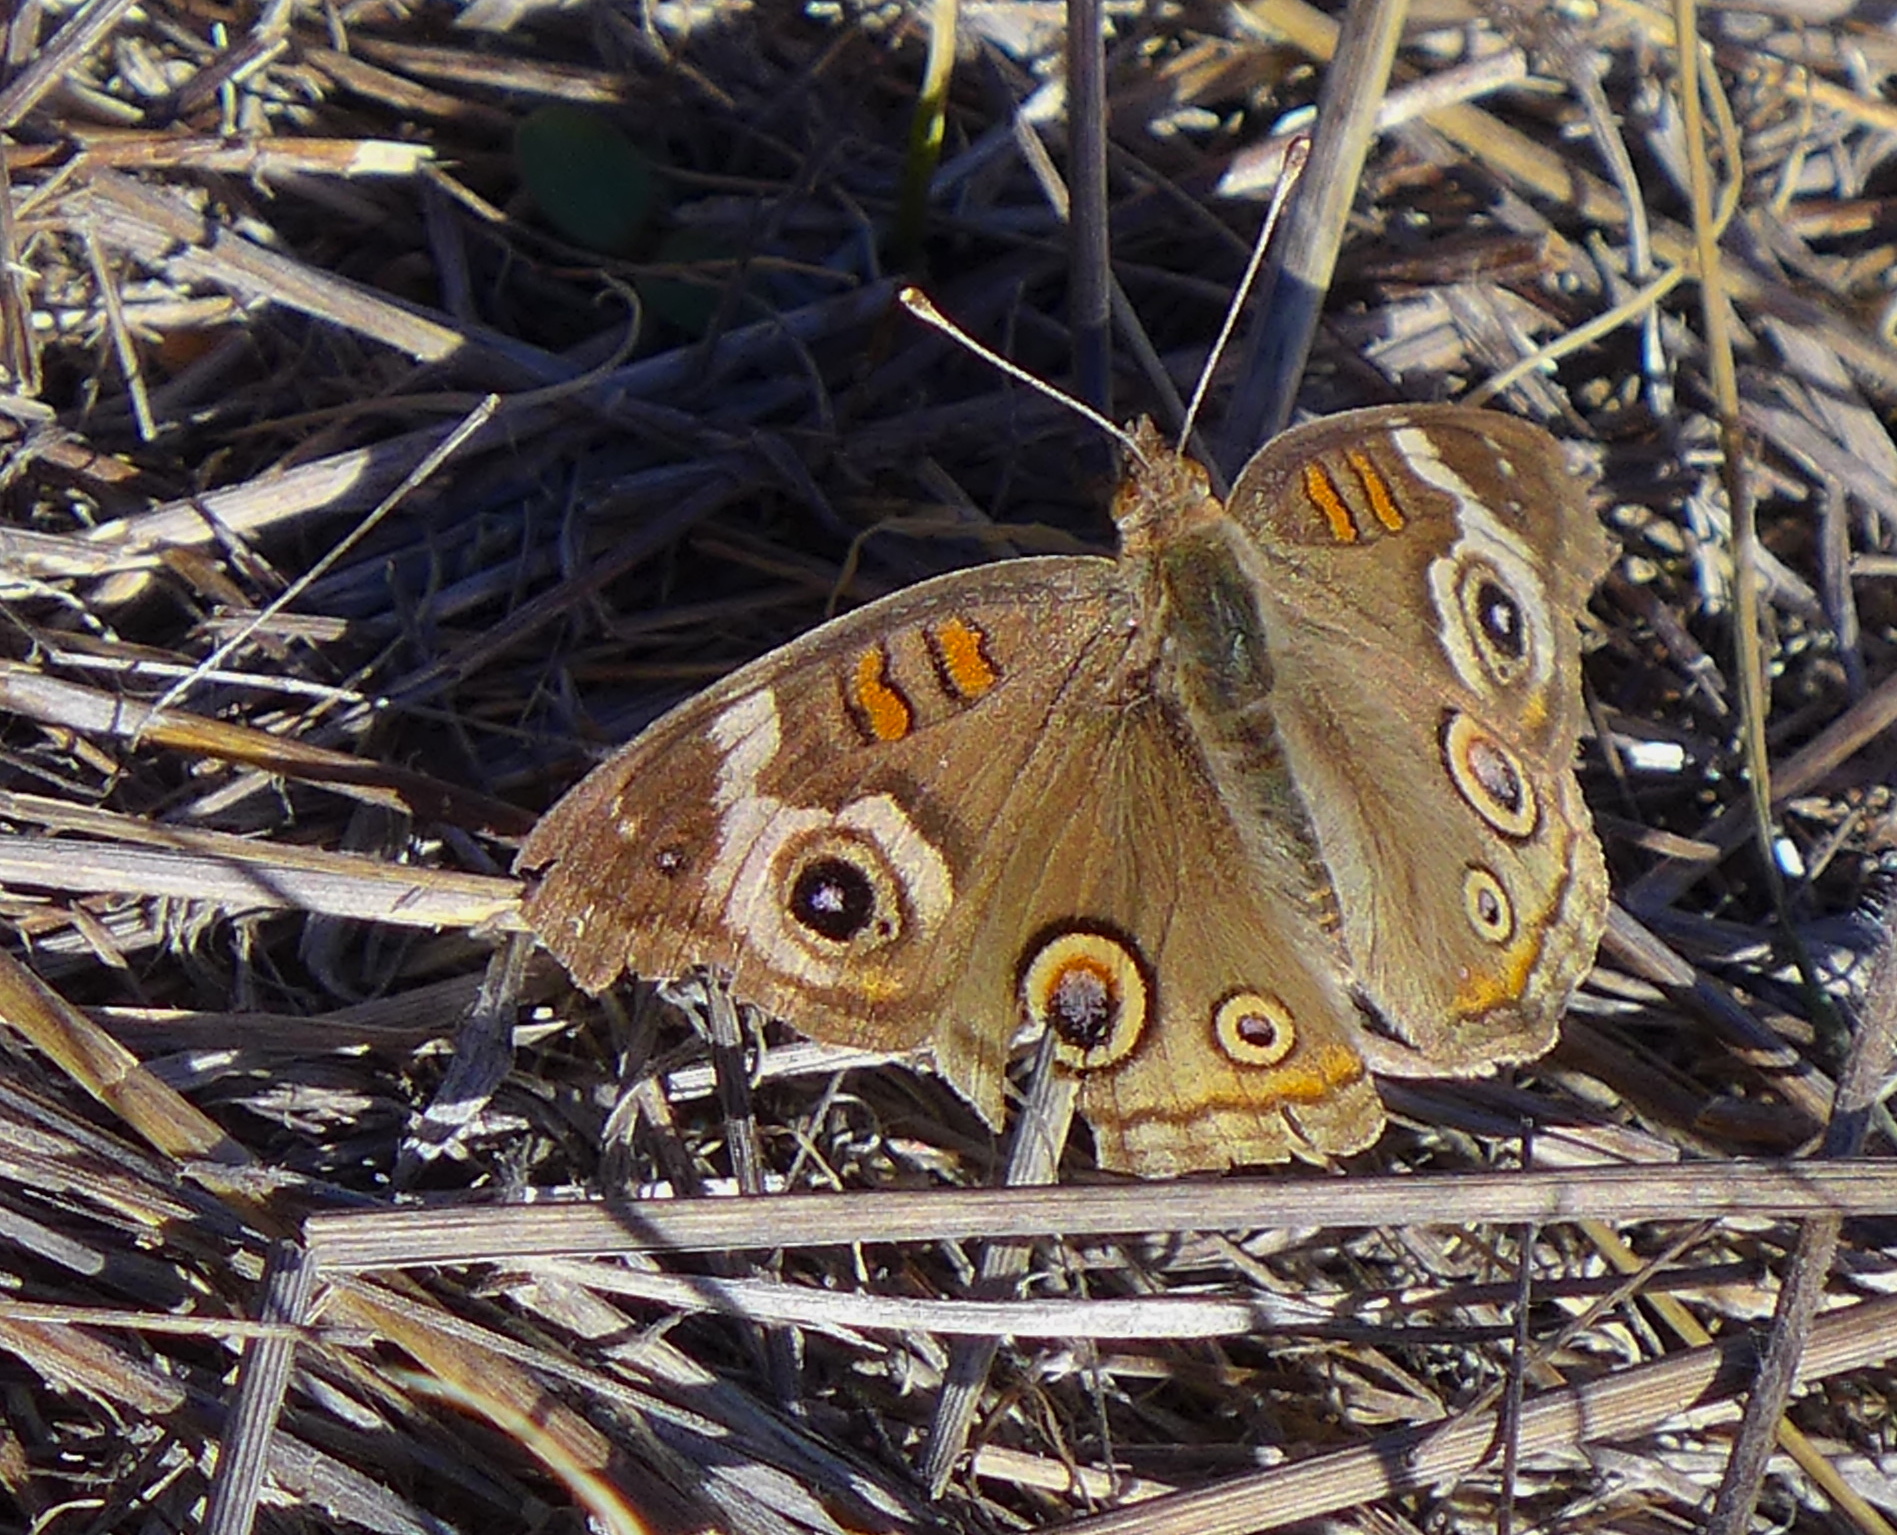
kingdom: Animalia
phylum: Arthropoda
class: Insecta
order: Lepidoptera
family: Nymphalidae
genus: Junonia
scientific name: Junonia grisea
